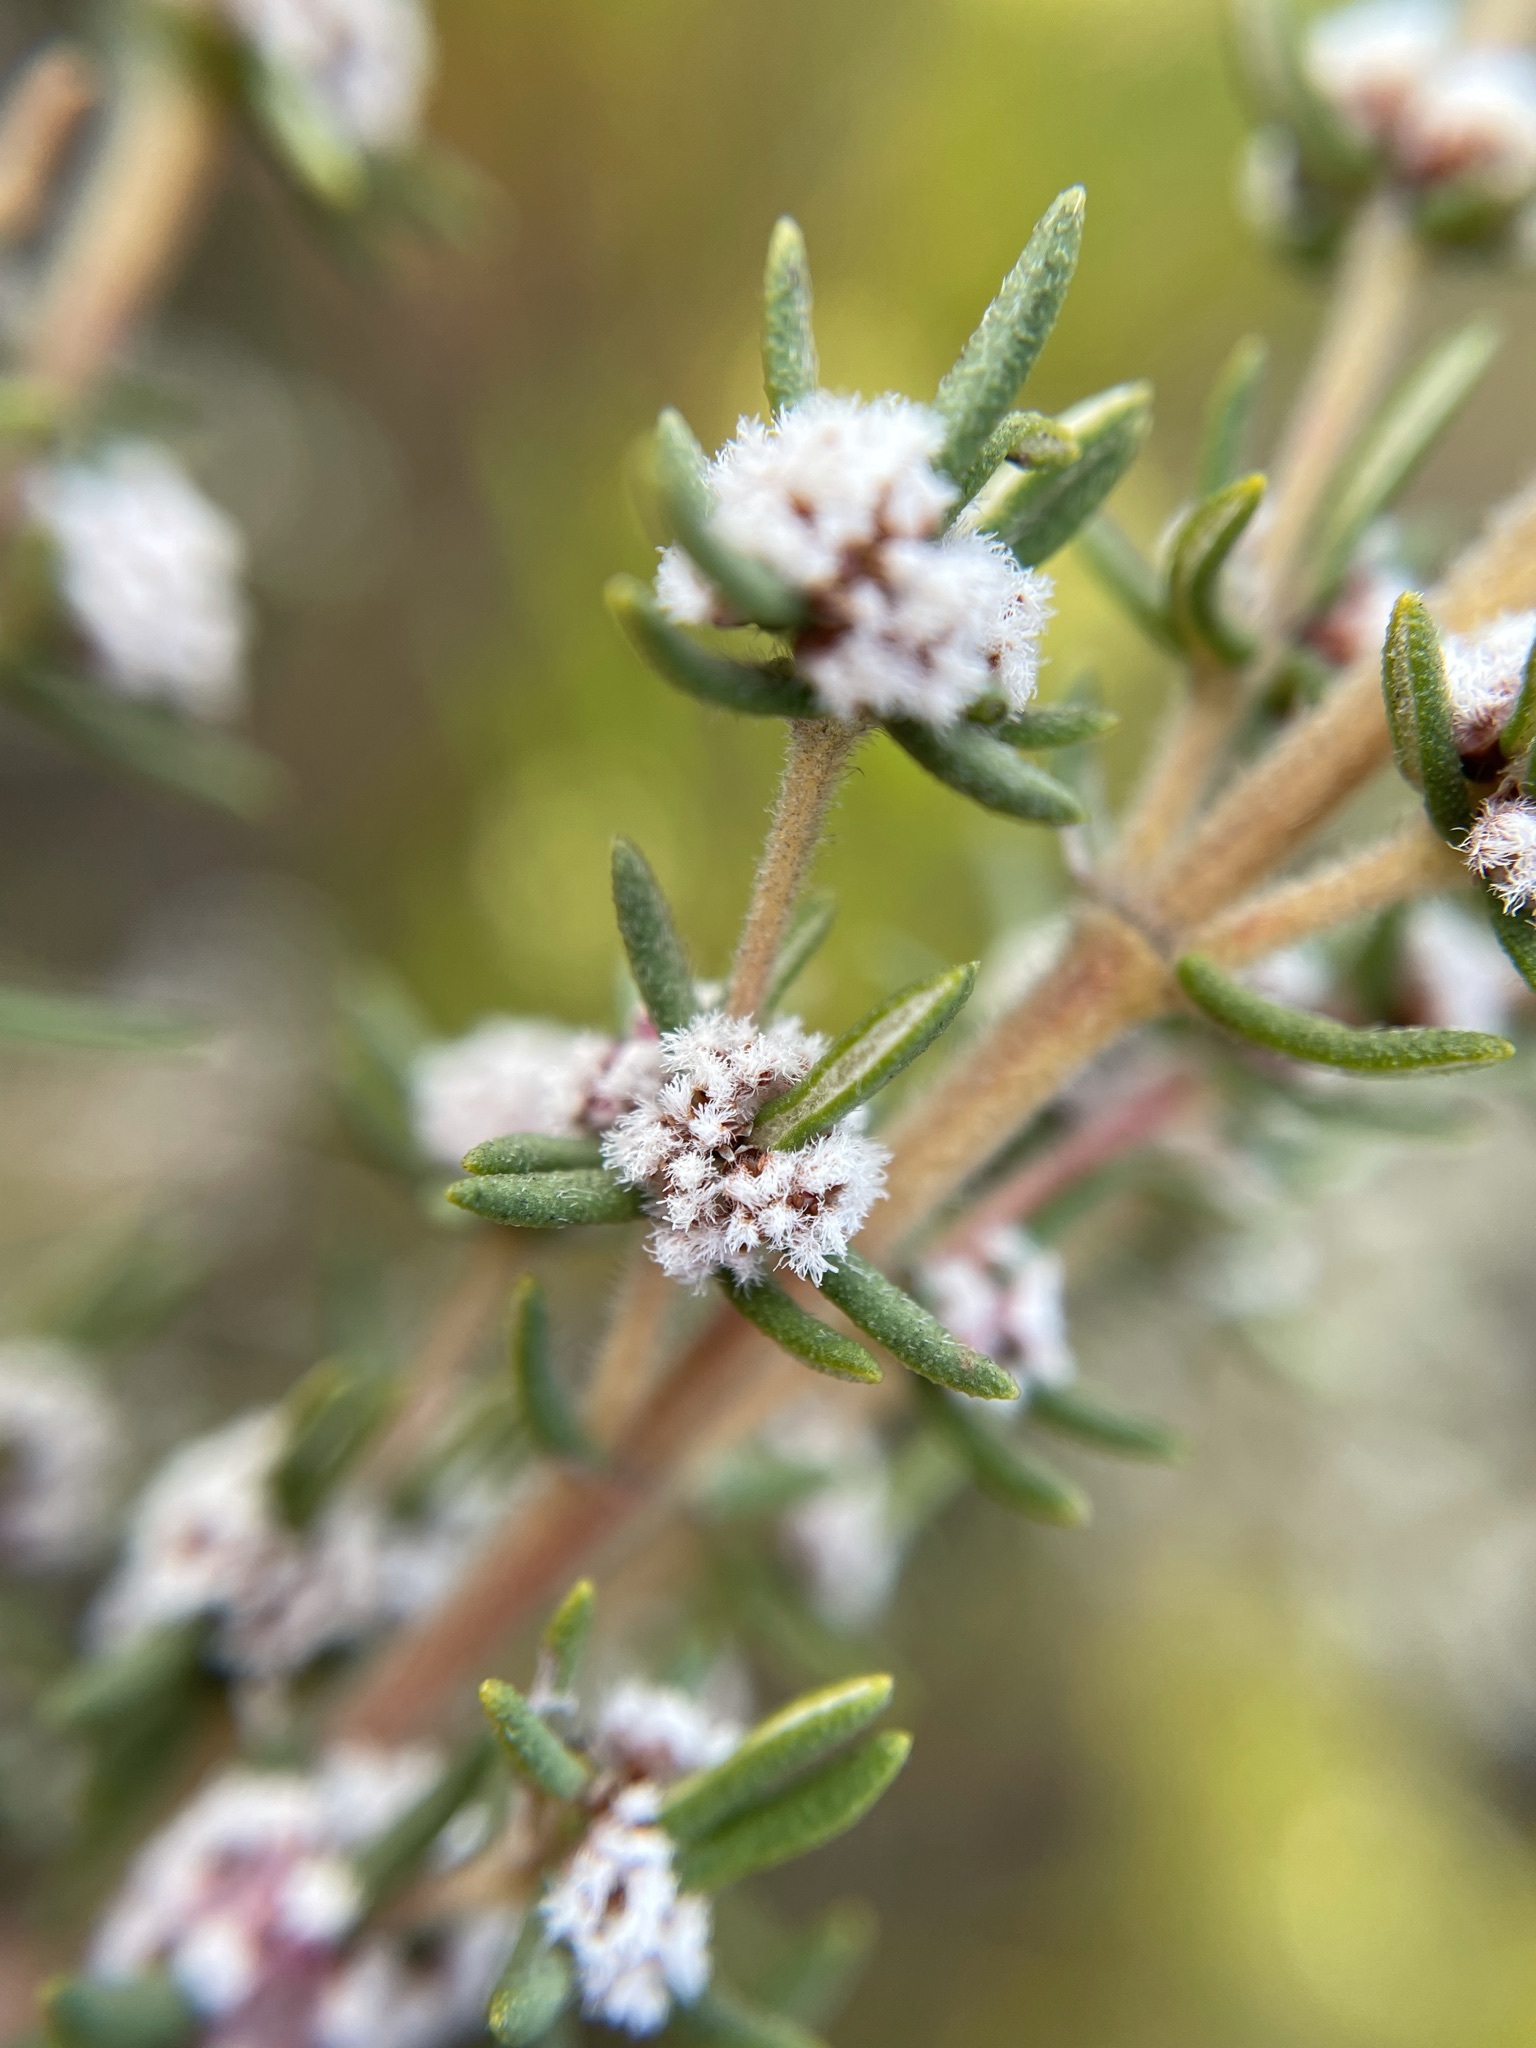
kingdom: Plantae
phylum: Tracheophyta
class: Magnoliopsida
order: Cornales
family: Grubbiaceae
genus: Grubbia
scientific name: Grubbia rosmarinifolia
